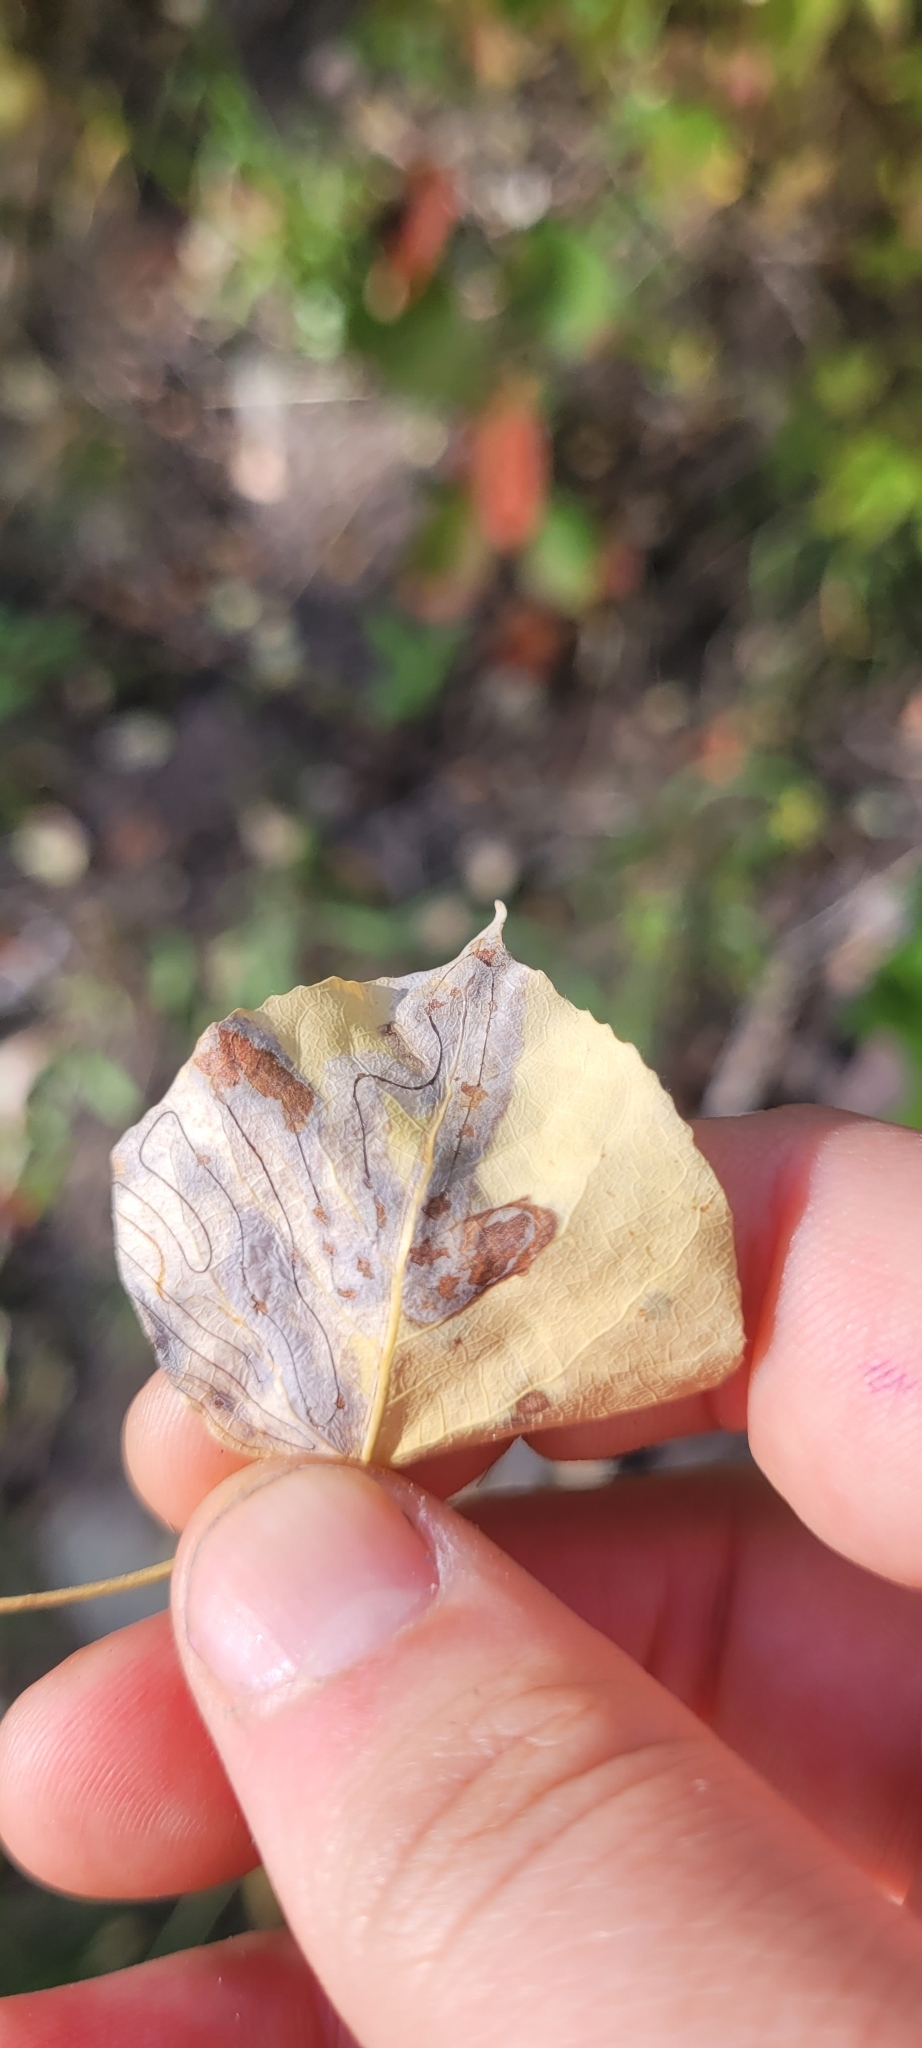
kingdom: Animalia
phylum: Arthropoda
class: Insecta
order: Lepidoptera
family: Gracillariidae
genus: Phyllocnistis
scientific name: Phyllocnistis populiella
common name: Aspen serpentine leafminer moth
